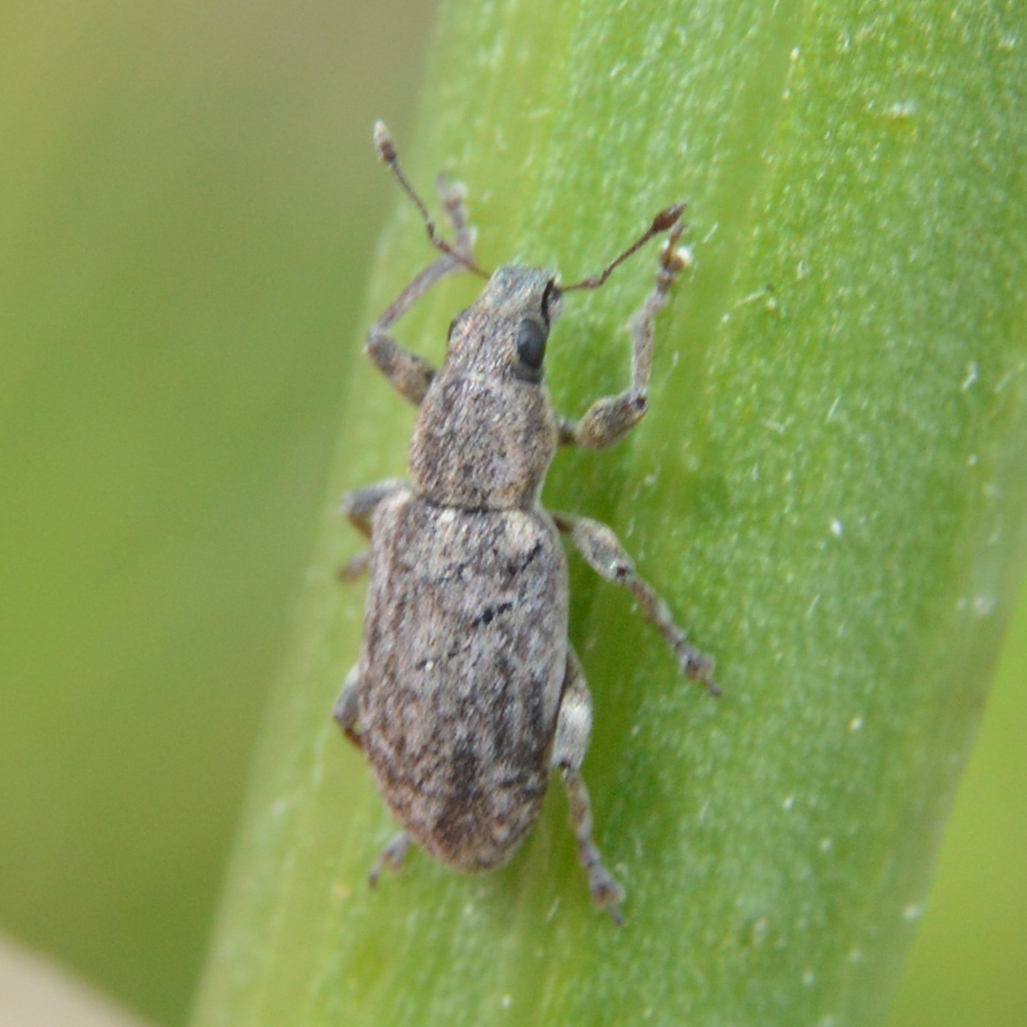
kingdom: Animalia
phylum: Arthropoda
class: Insecta
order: Coleoptera
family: Curculionidae
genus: Sitona
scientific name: Sitona cylindricollis
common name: Weevil
